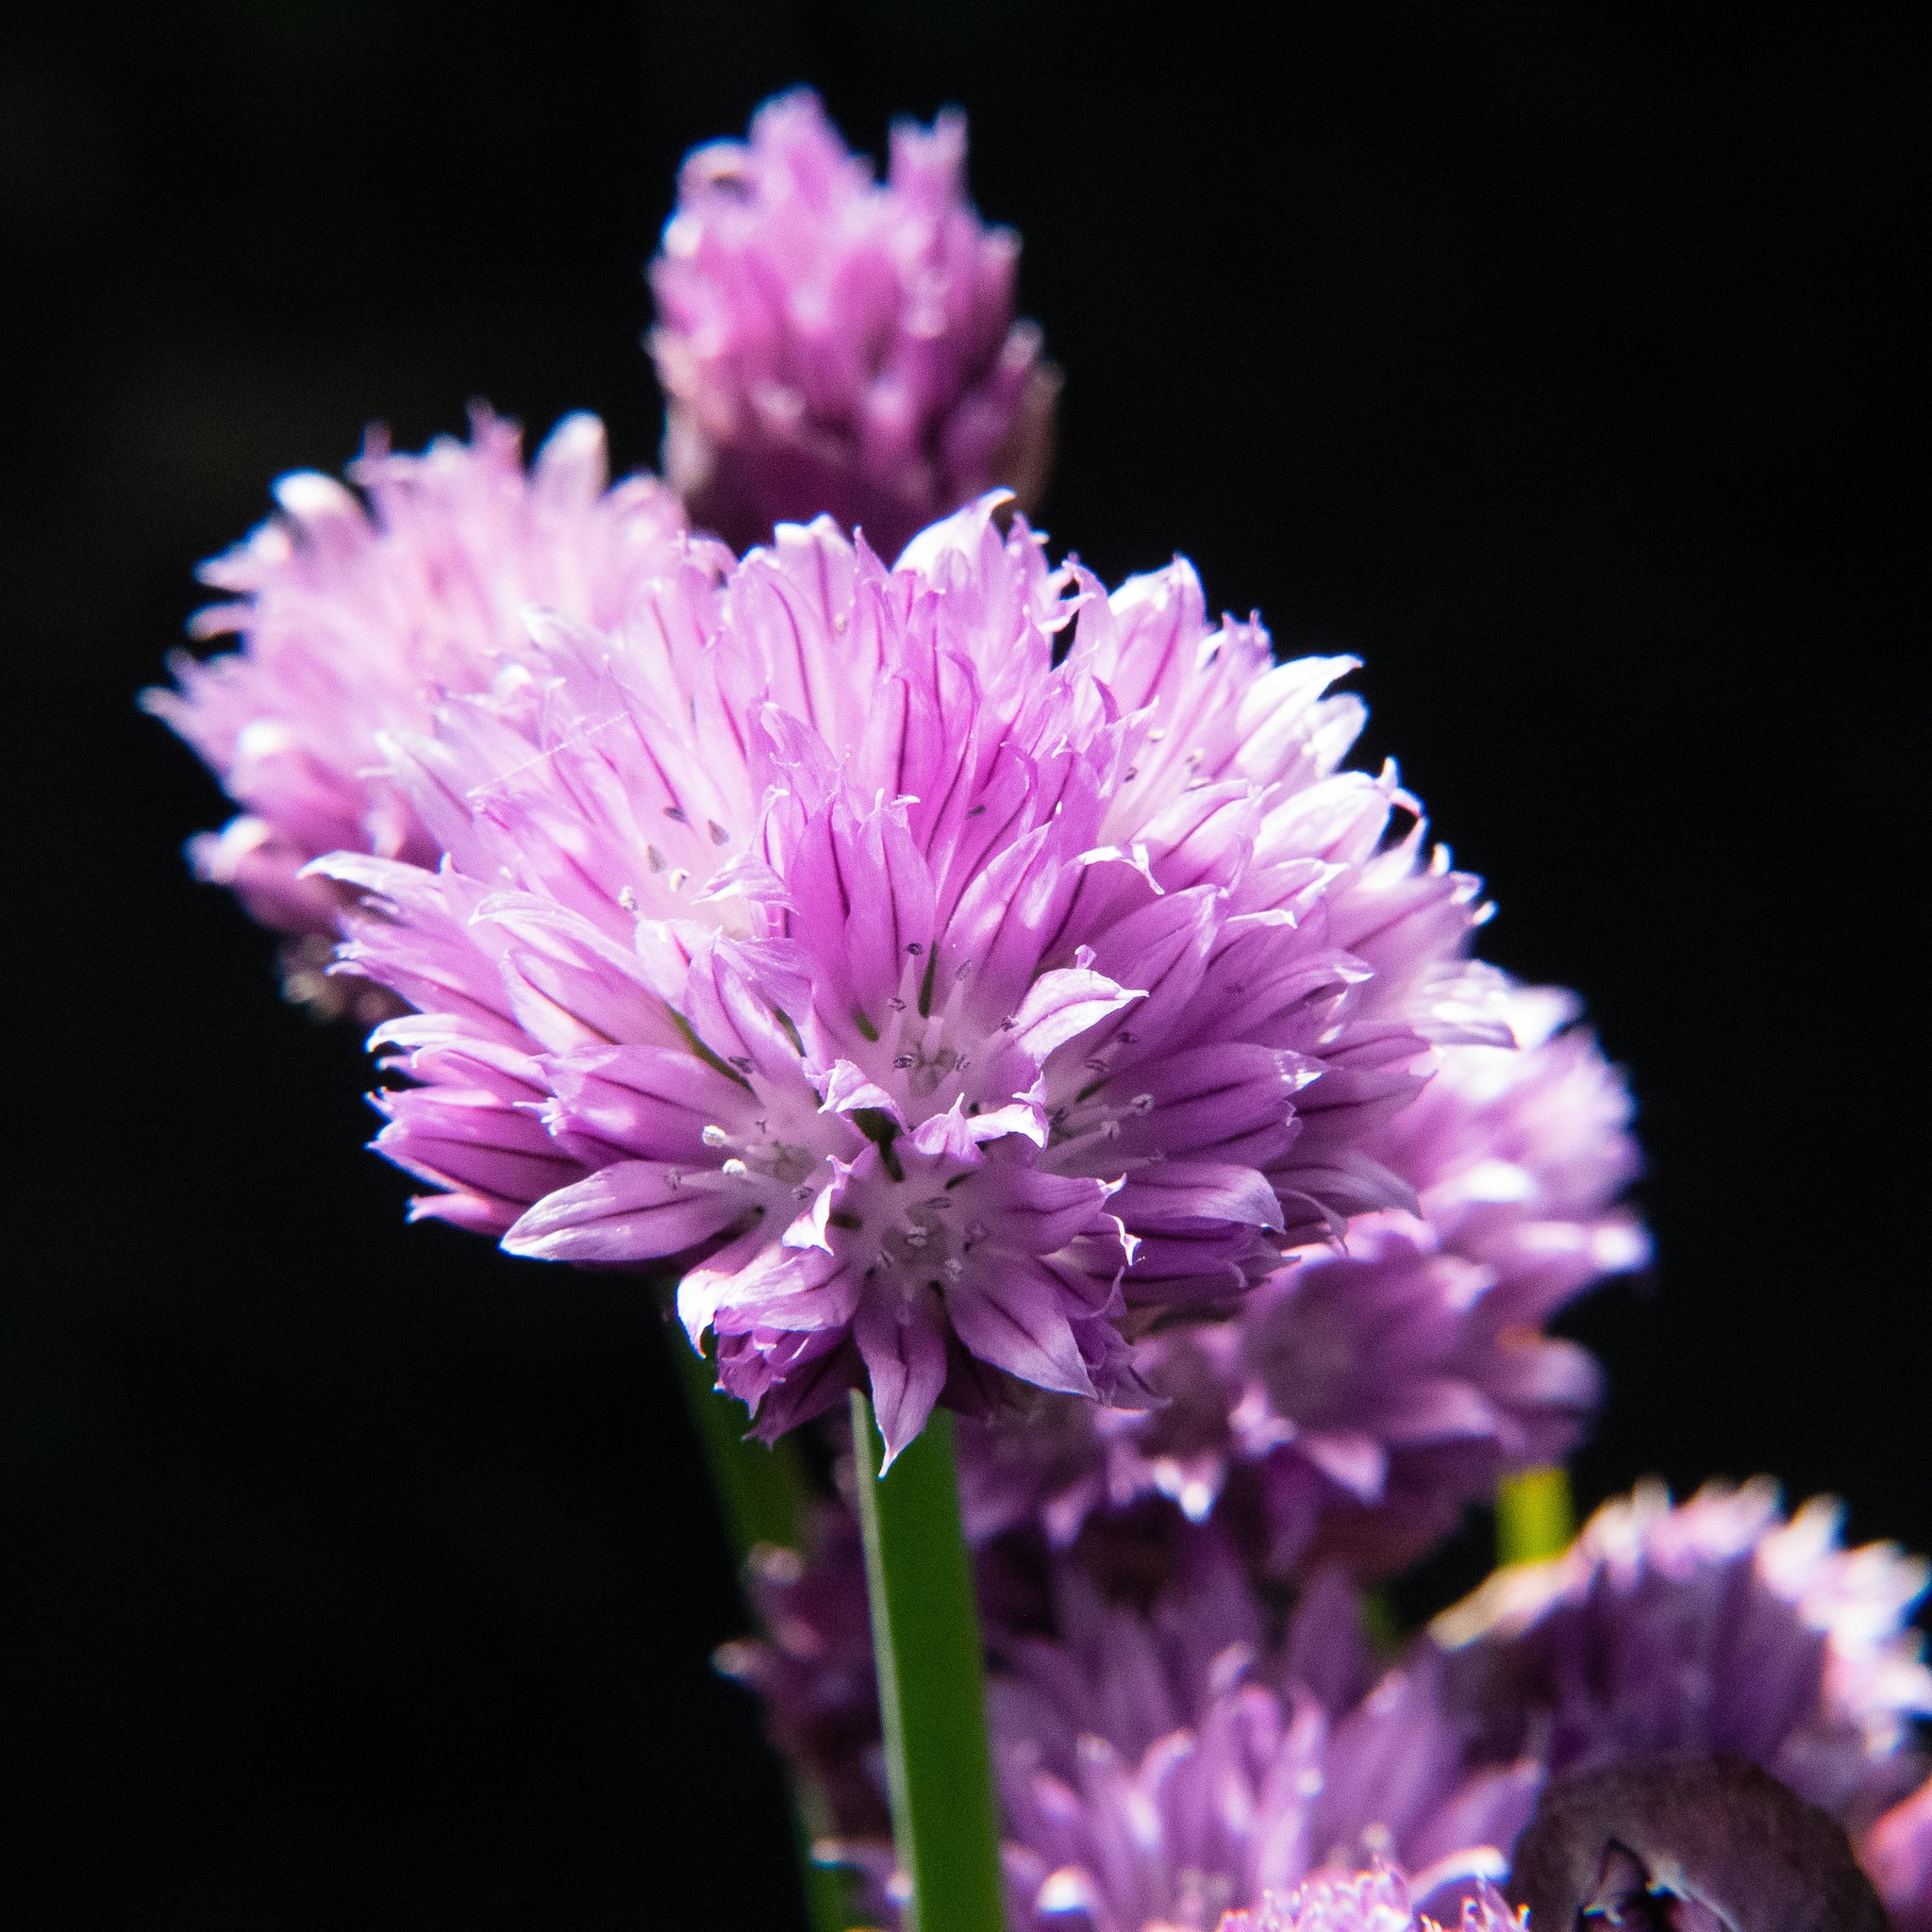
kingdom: Plantae
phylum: Tracheophyta
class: Liliopsida
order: Asparagales
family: Amaryllidaceae
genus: Allium
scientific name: Allium schoenoprasum
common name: Chives
